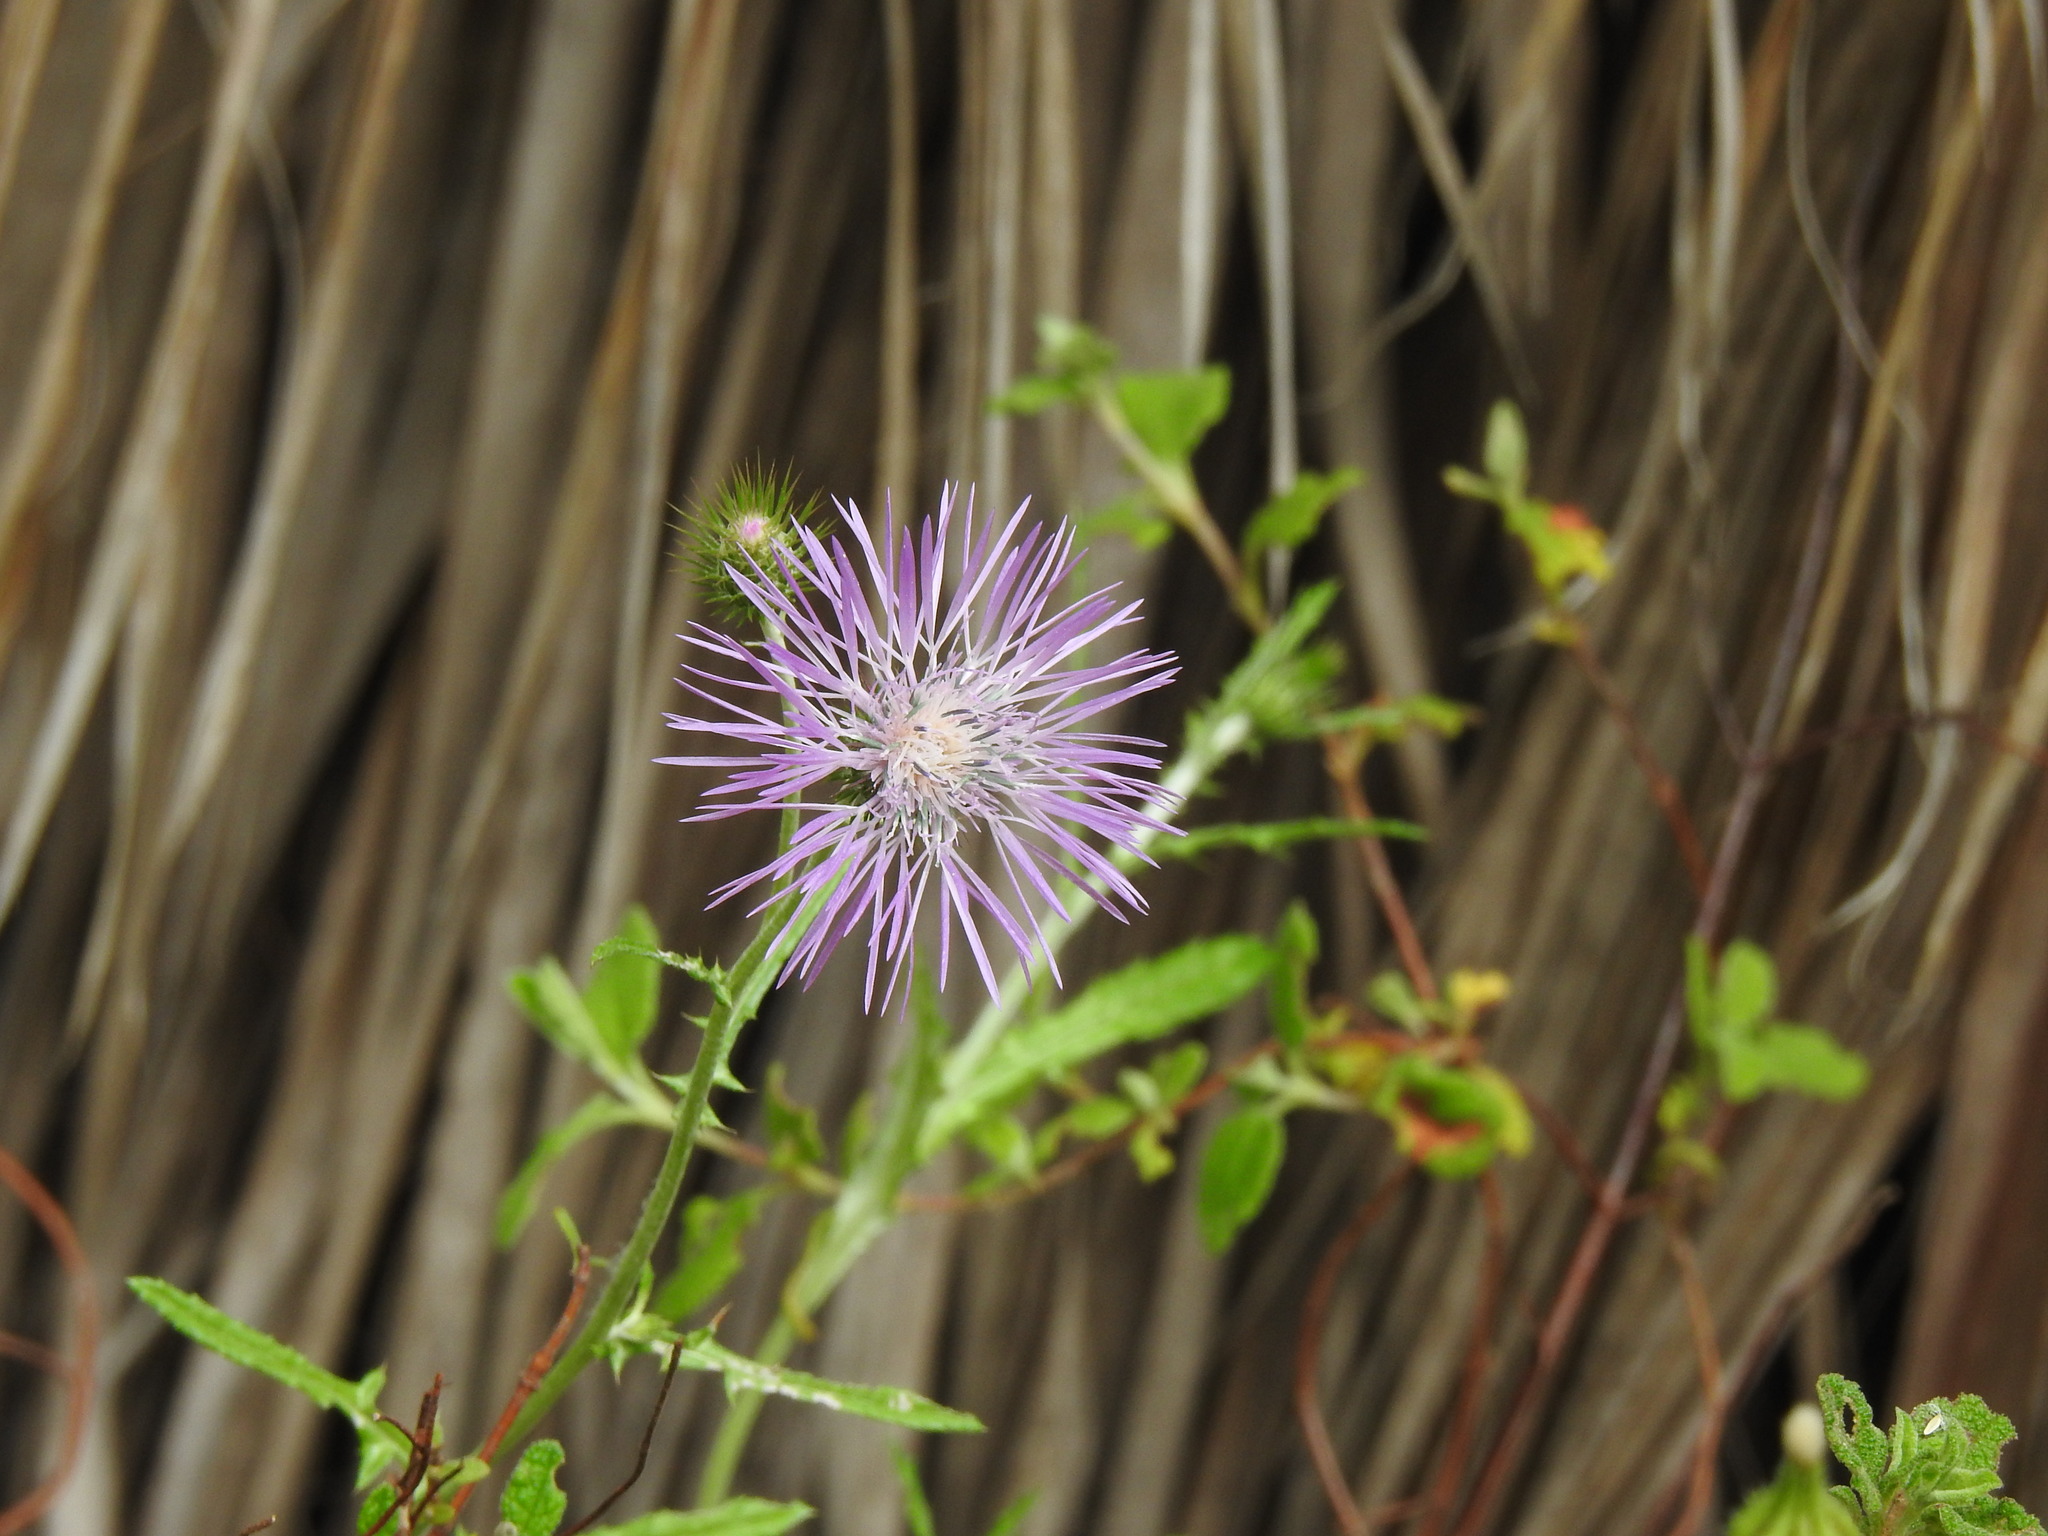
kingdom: Plantae
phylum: Tracheophyta
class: Magnoliopsida
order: Asterales
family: Asteraceae
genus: Galactites
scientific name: Galactites tomentosa
